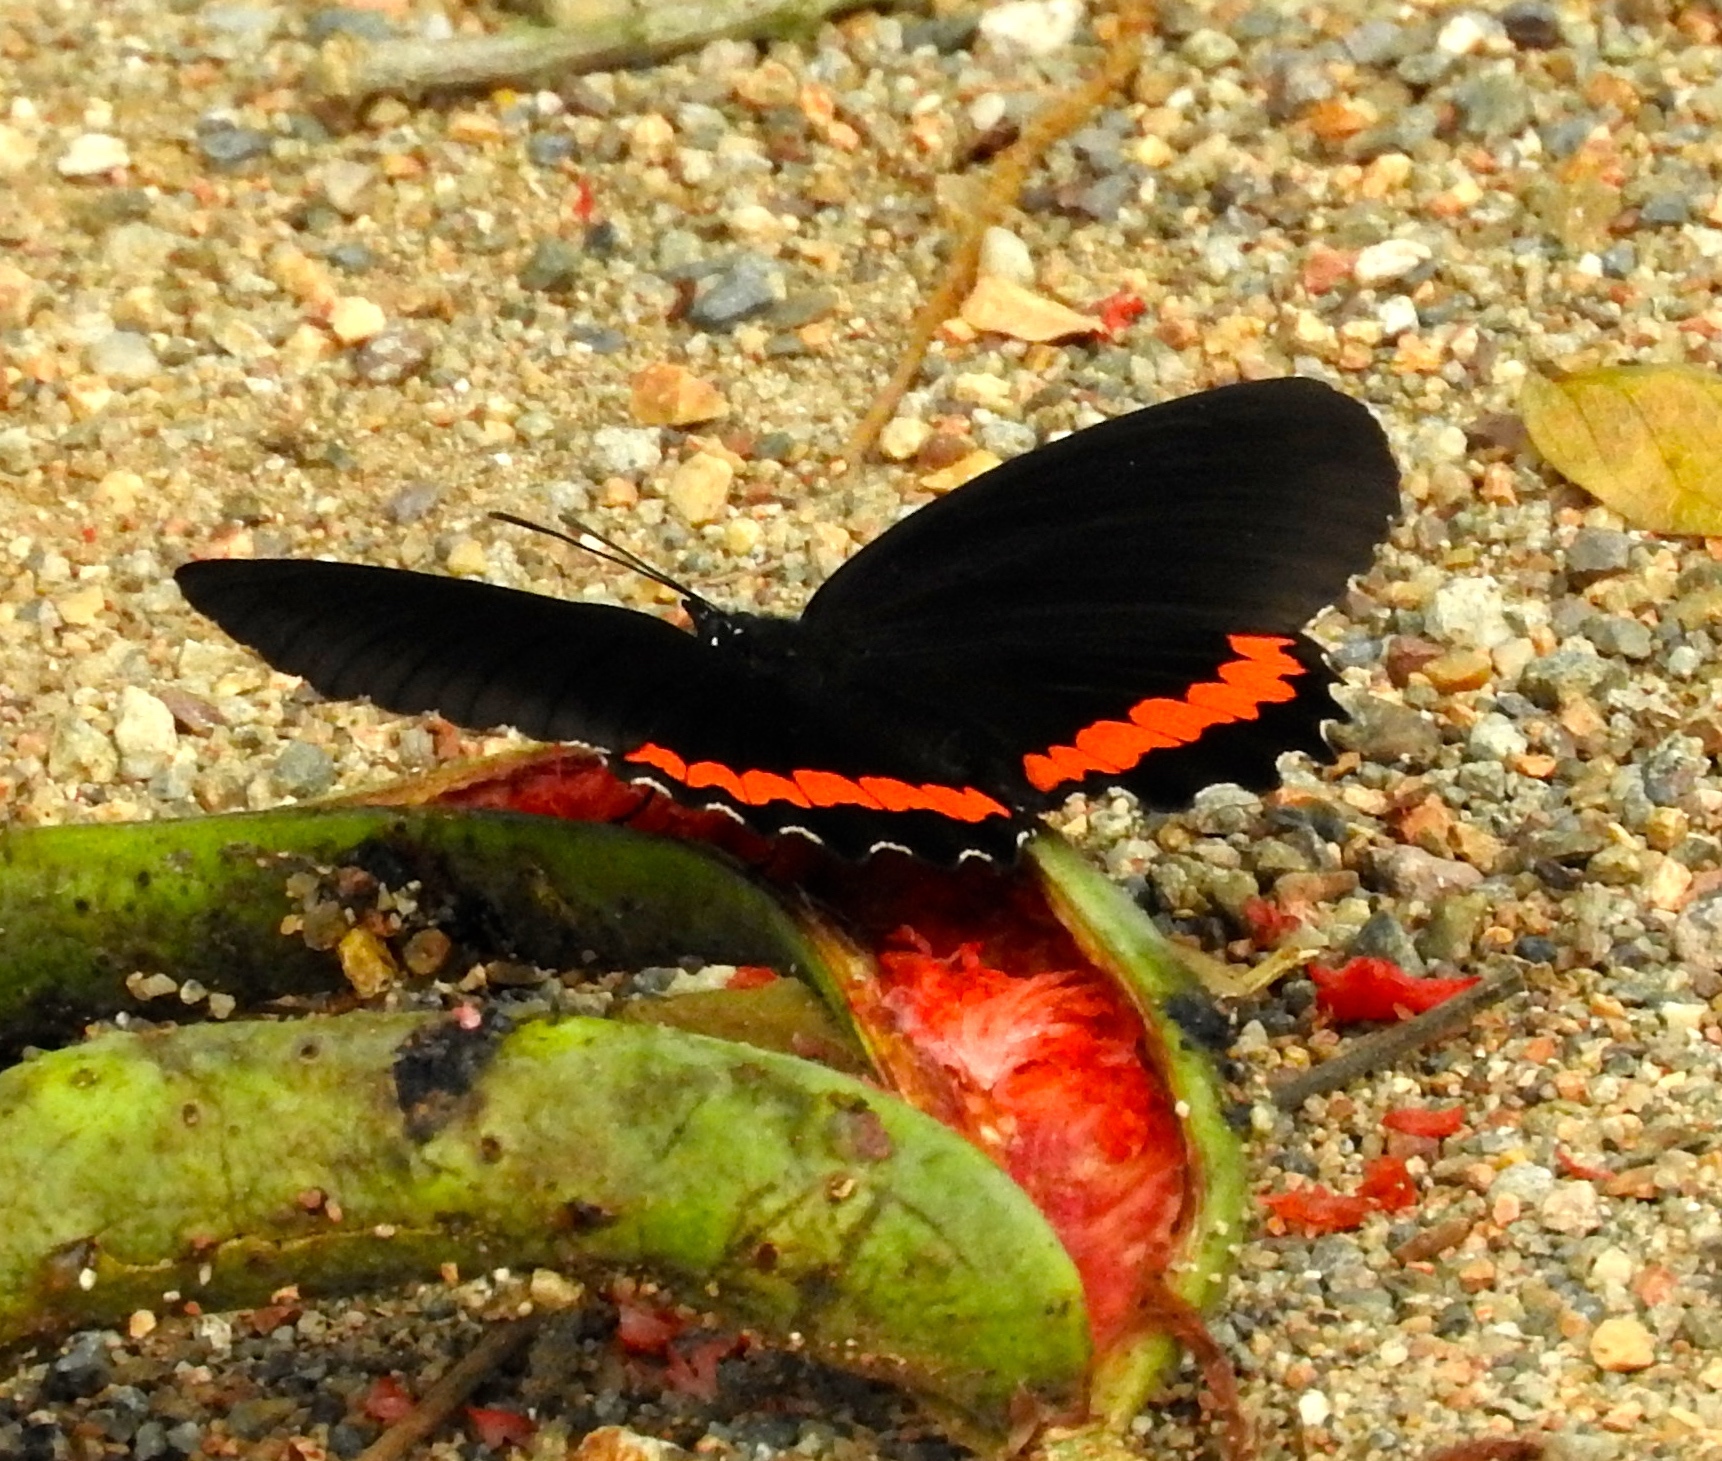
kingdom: Animalia
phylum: Arthropoda
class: Insecta
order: Lepidoptera
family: Nymphalidae
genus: Biblis
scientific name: Biblis
